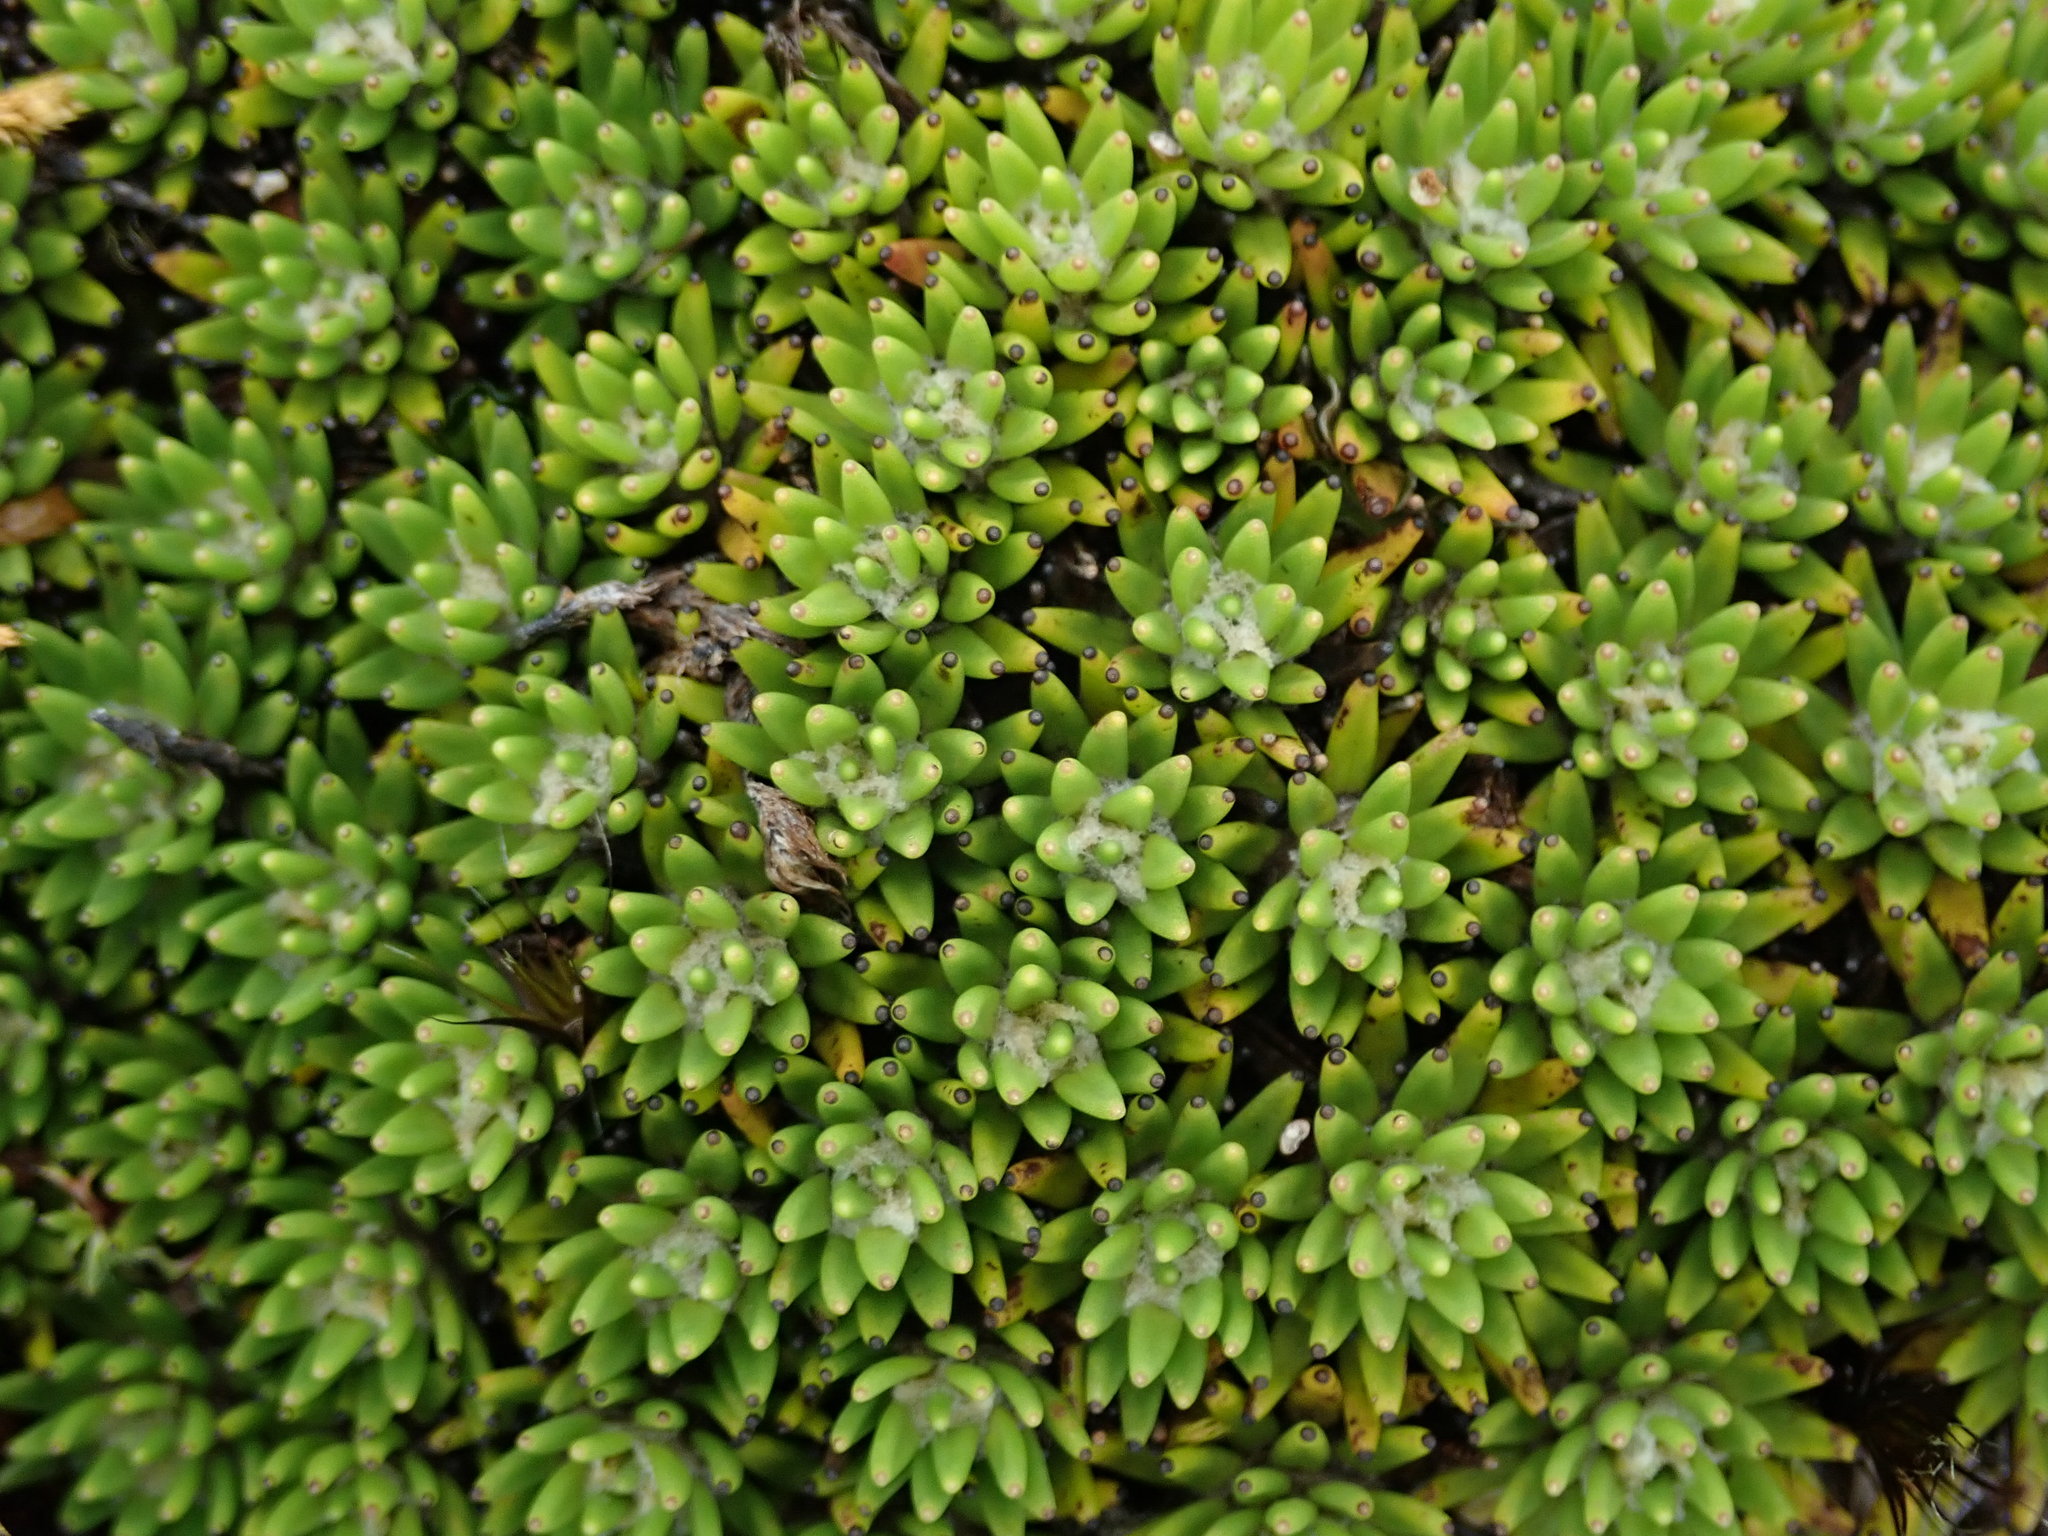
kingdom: Plantae
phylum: Tracheophyta
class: Magnoliopsida
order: Asterales
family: Asteraceae
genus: Werneria
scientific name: Werneria humilis
